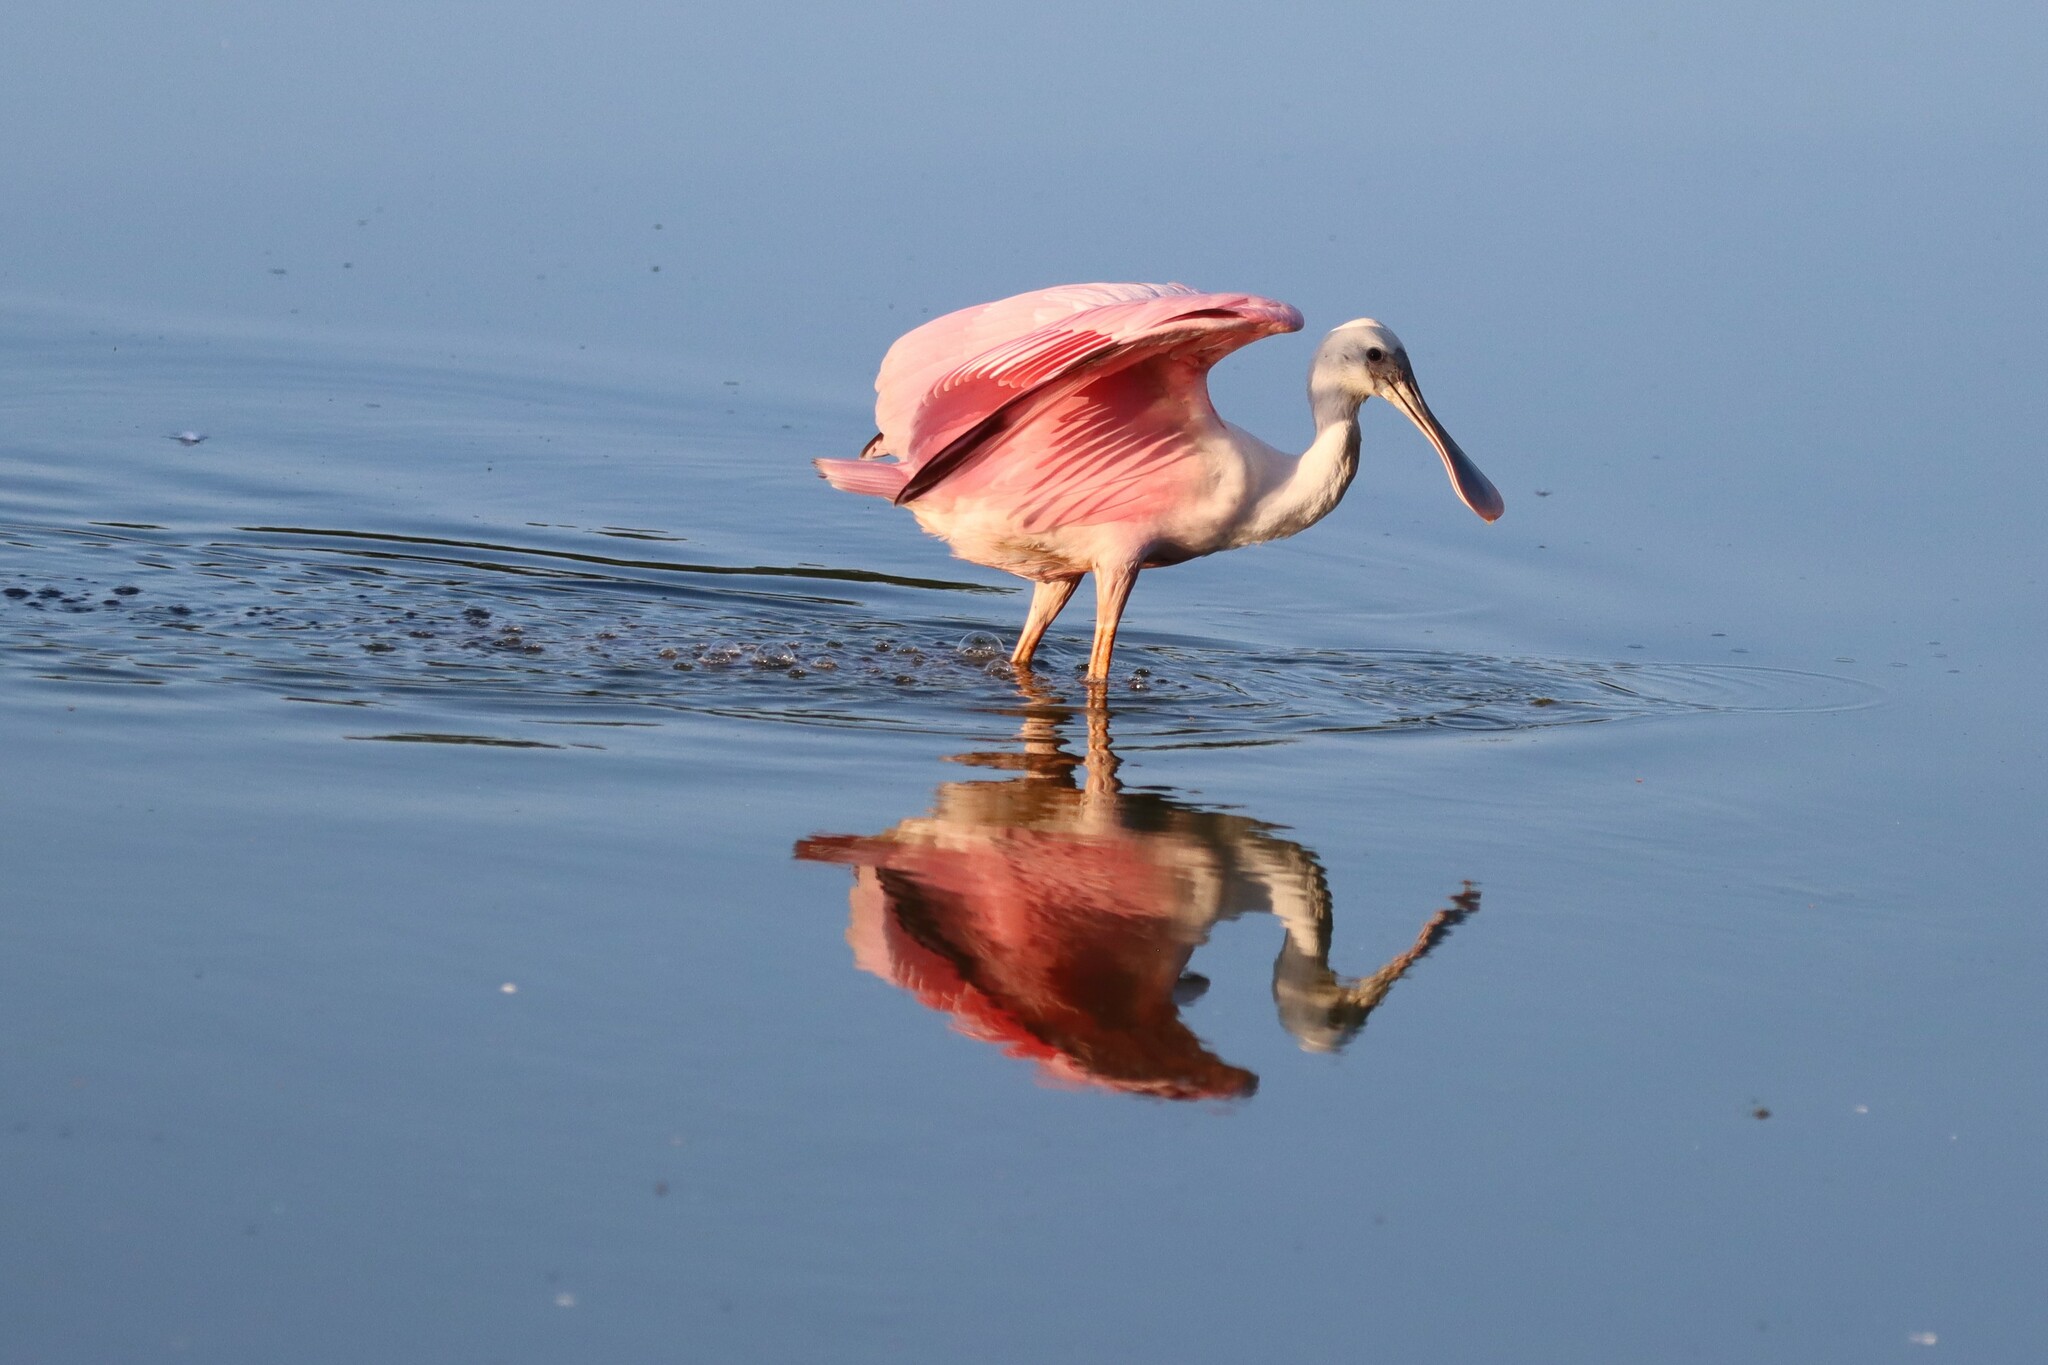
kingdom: Animalia
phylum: Chordata
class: Aves
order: Pelecaniformes
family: Threskiornithidae
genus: Platalea
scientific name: Platalea ajaja
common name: Roseate spoonbill
